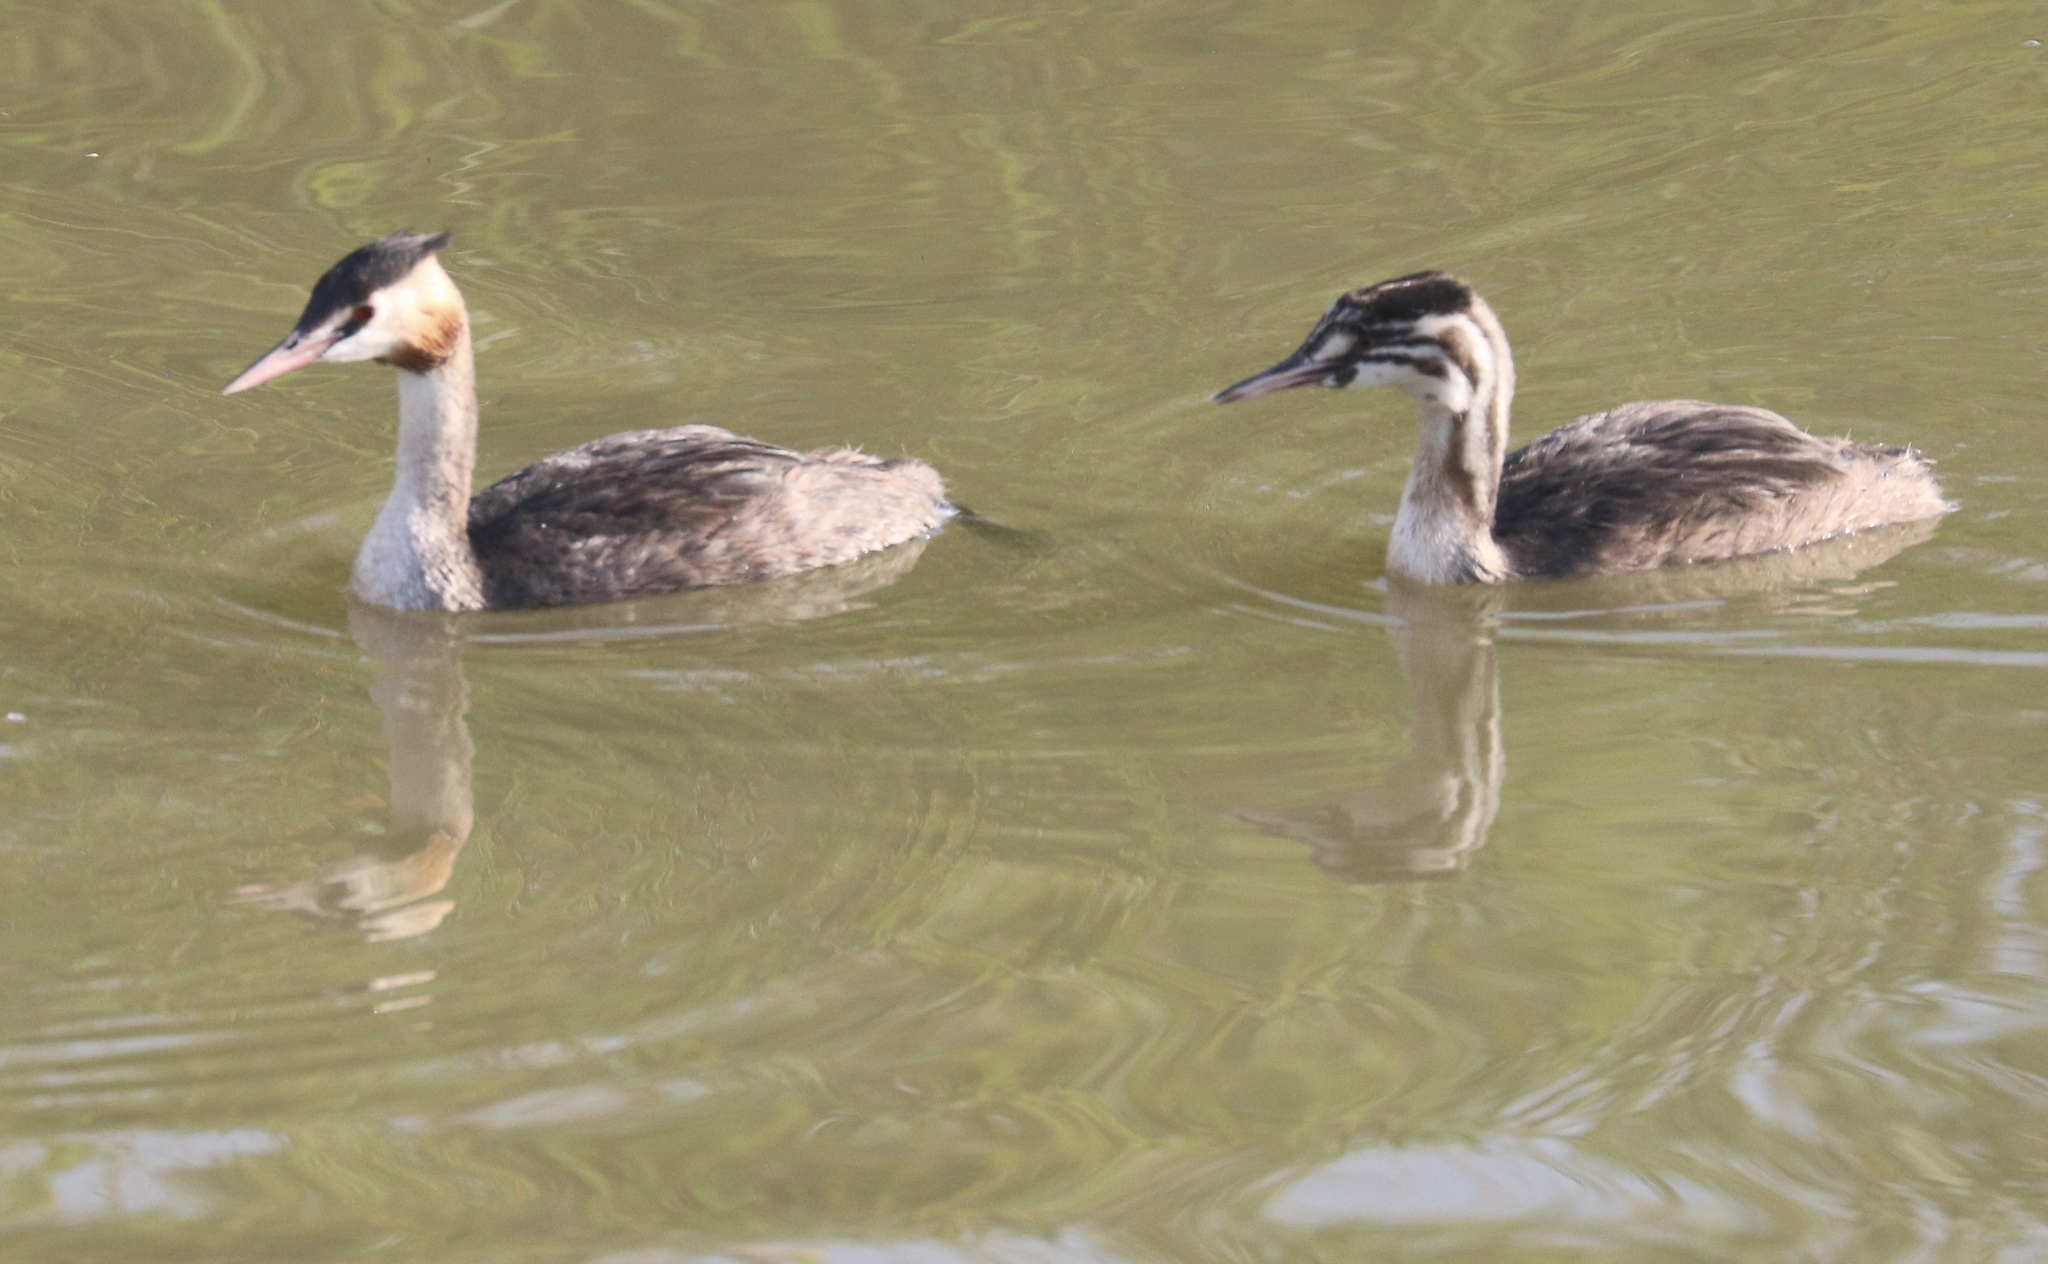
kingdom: Animalia
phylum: Chordata
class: Aves
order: Podicipediformes
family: Podicipedidae
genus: Podiceps
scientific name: Podiceps cristatus
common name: Great crested grebe
